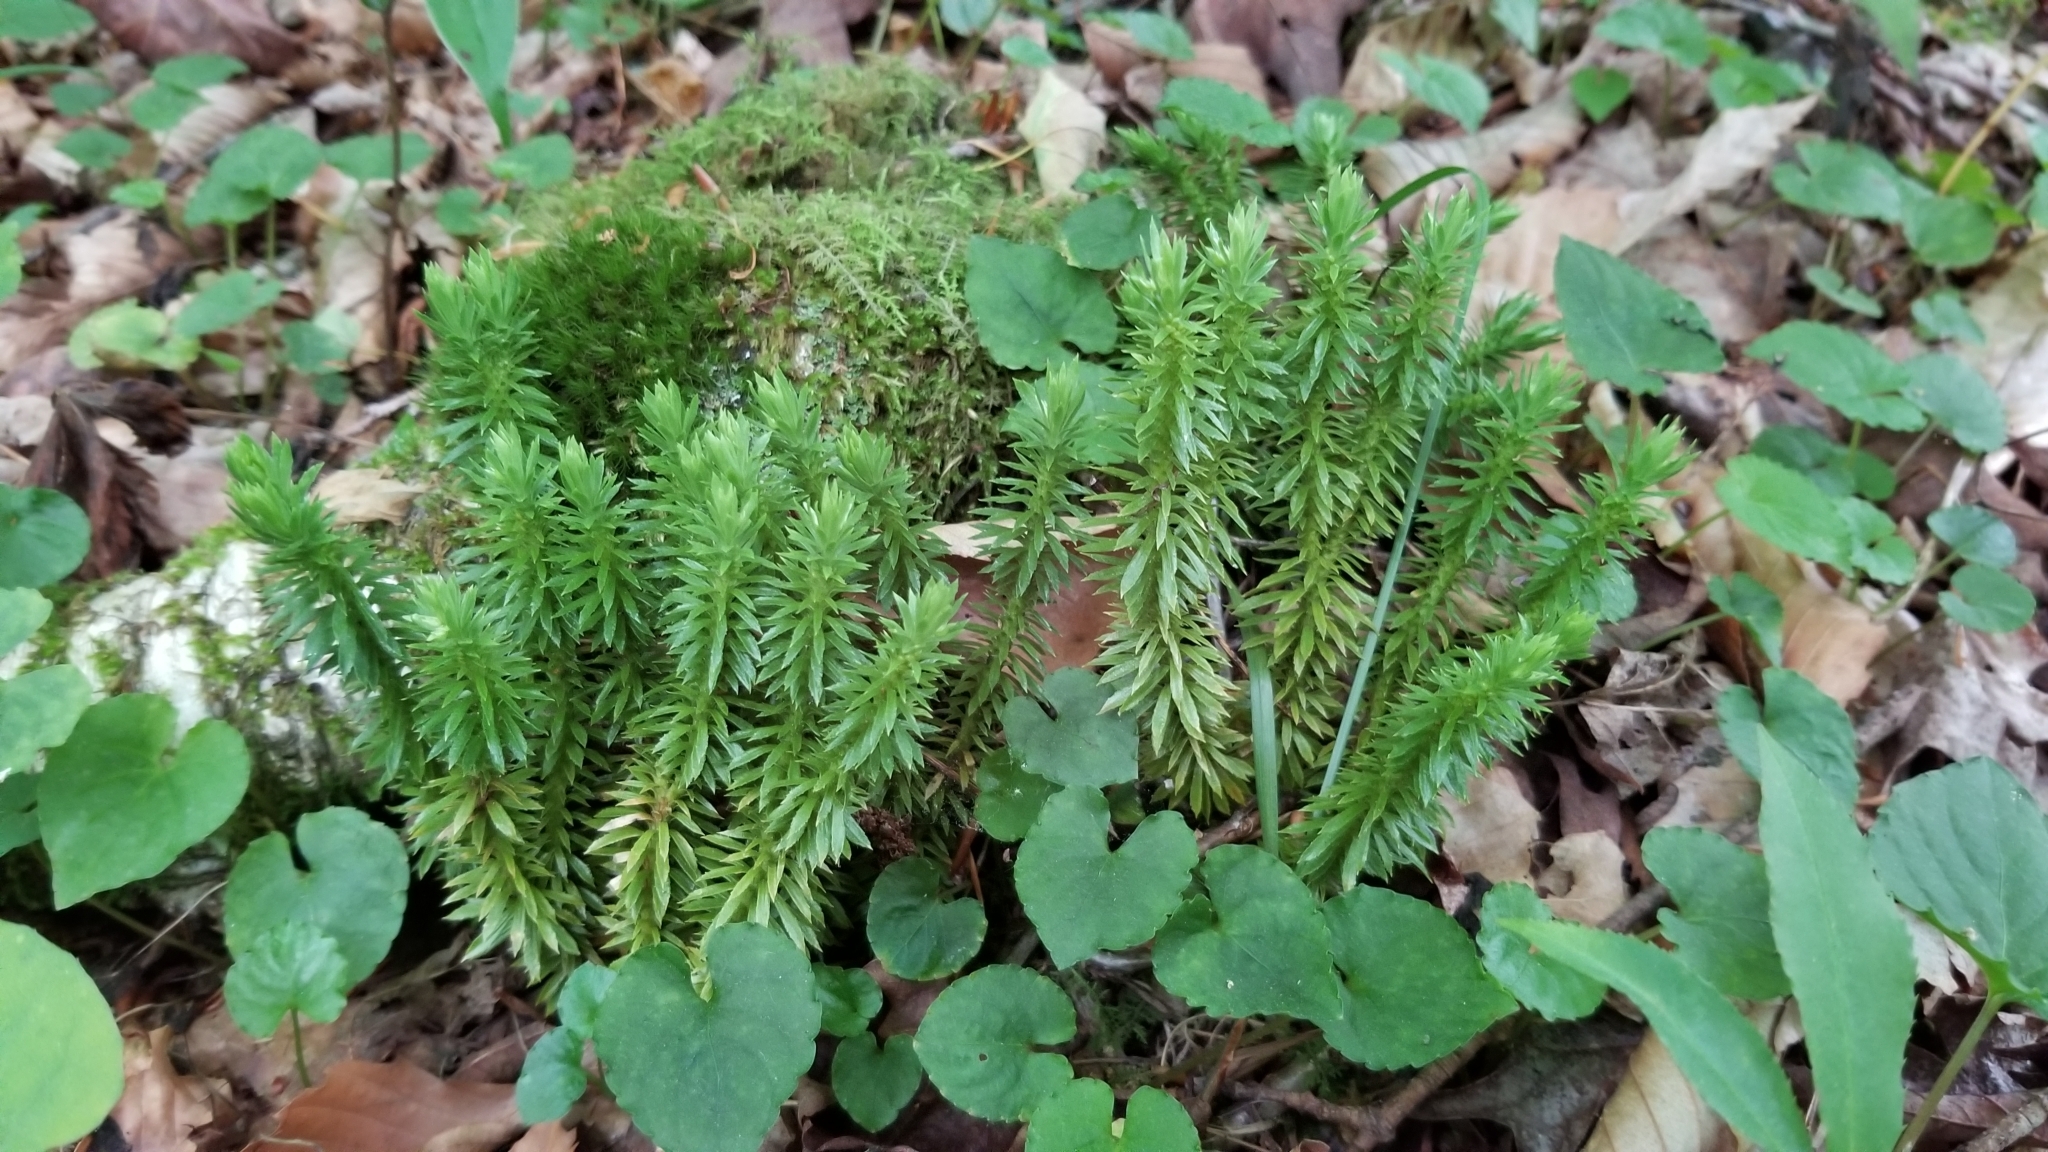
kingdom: Plantae
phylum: Tracheophyta
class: Lycopodiopsida
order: Lycopodiales
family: Lycopodiaceae
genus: Huperzia
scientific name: Huperzia lucidula
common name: Shining clubmoss
